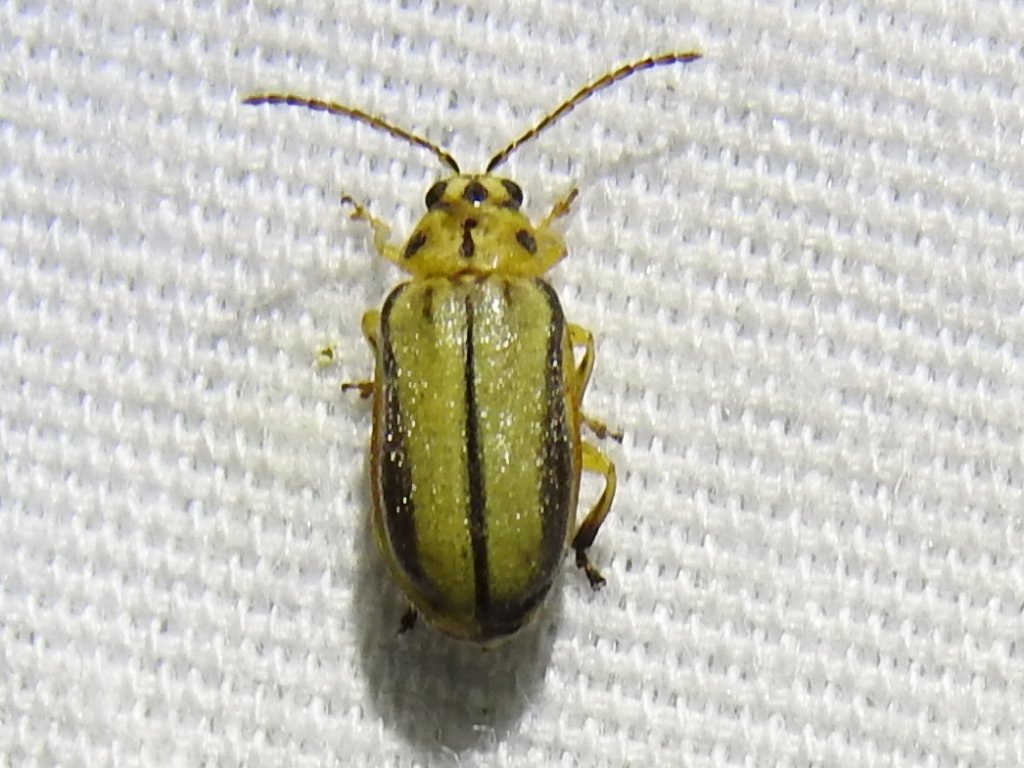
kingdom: Animalia
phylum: Arthropoda
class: Insecta
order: Coleoptera
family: Chrysomelidae
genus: Xanthogaleruca
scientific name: Xanthogaleruca luteola
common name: Elm leaf beetle
